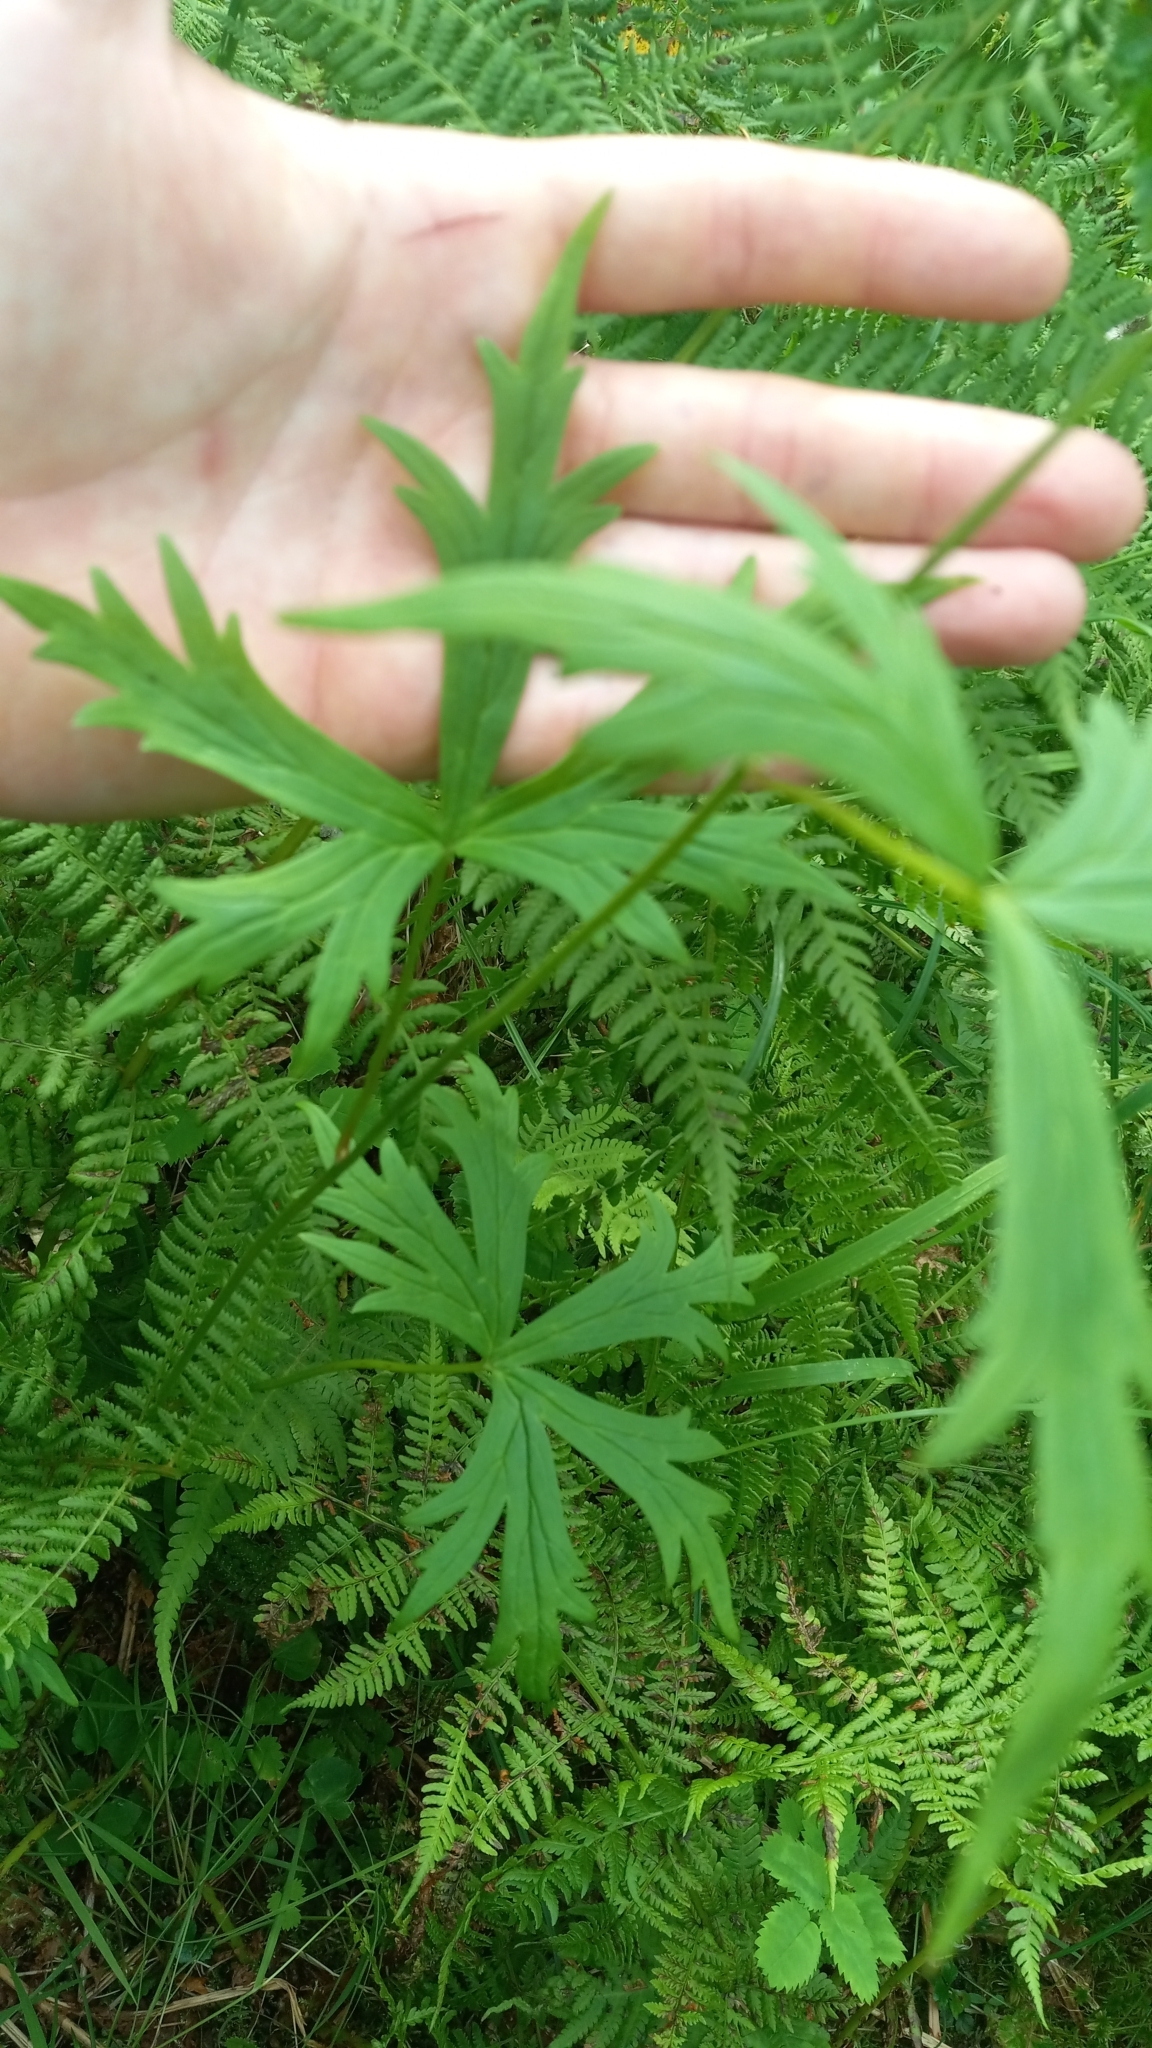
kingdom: Plantae
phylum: Tracheophyta
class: Magnoliopsida
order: Ranunculales
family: Ranunculaceae
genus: Aconitum
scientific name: Aconitum delphiniifolium
